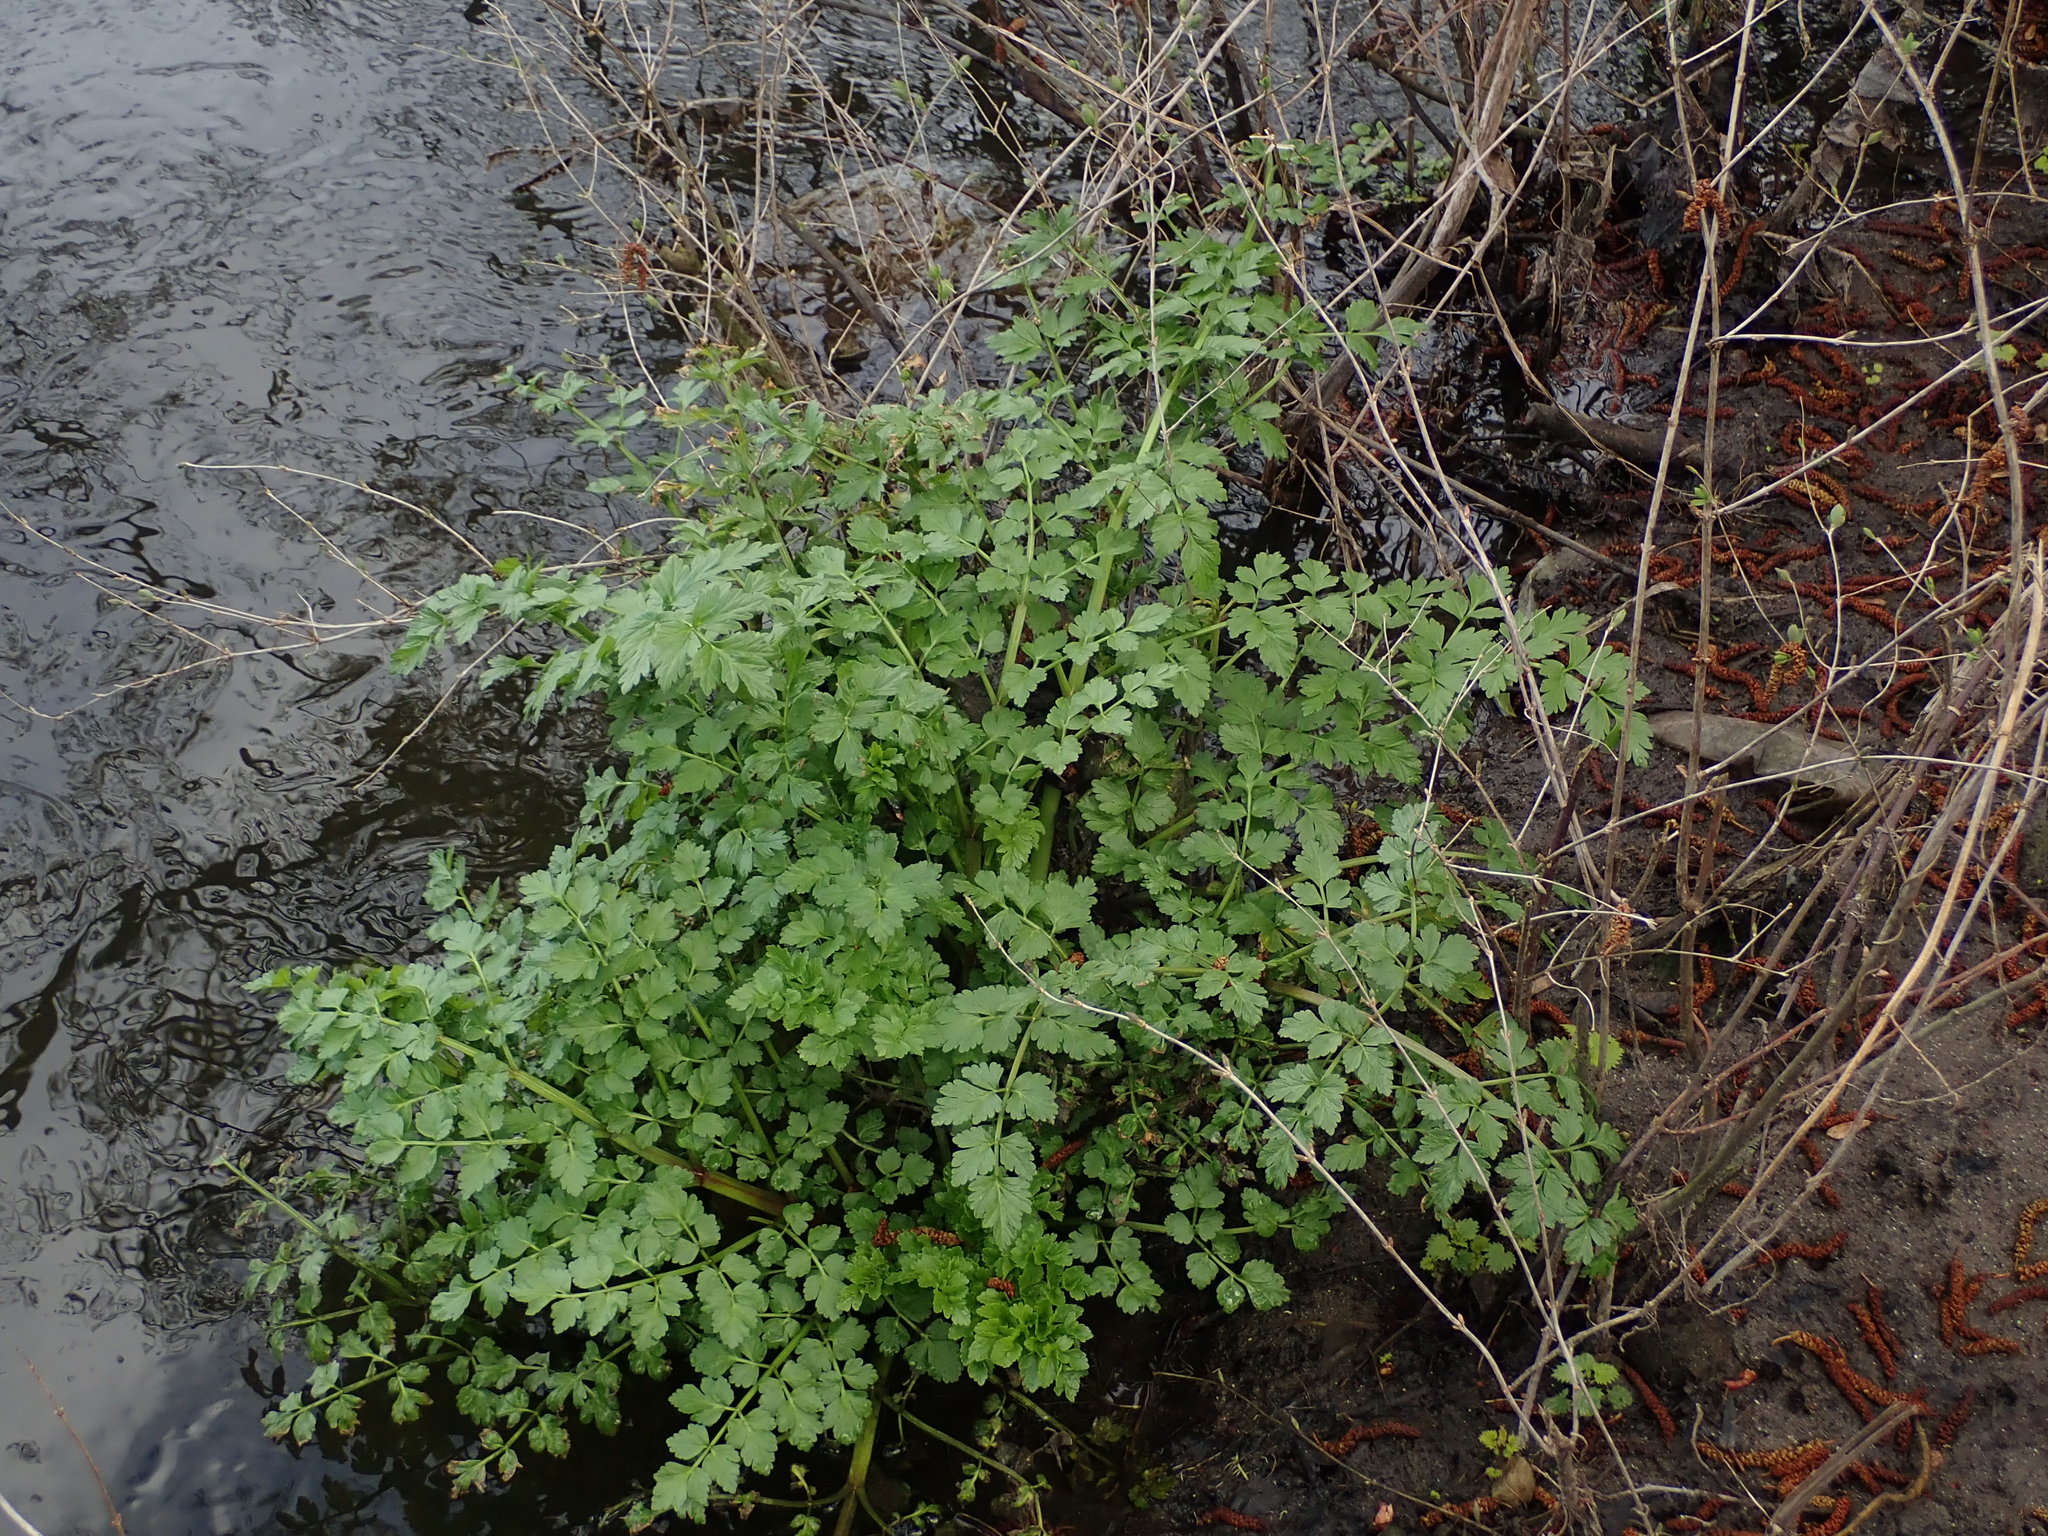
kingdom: Plantae
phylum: Tracheophyta
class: Magnoliopsida
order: Apiales
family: Apiaceae
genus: Oenanthe
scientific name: Oenanthe crocata
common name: Hemlock water-dropwort
